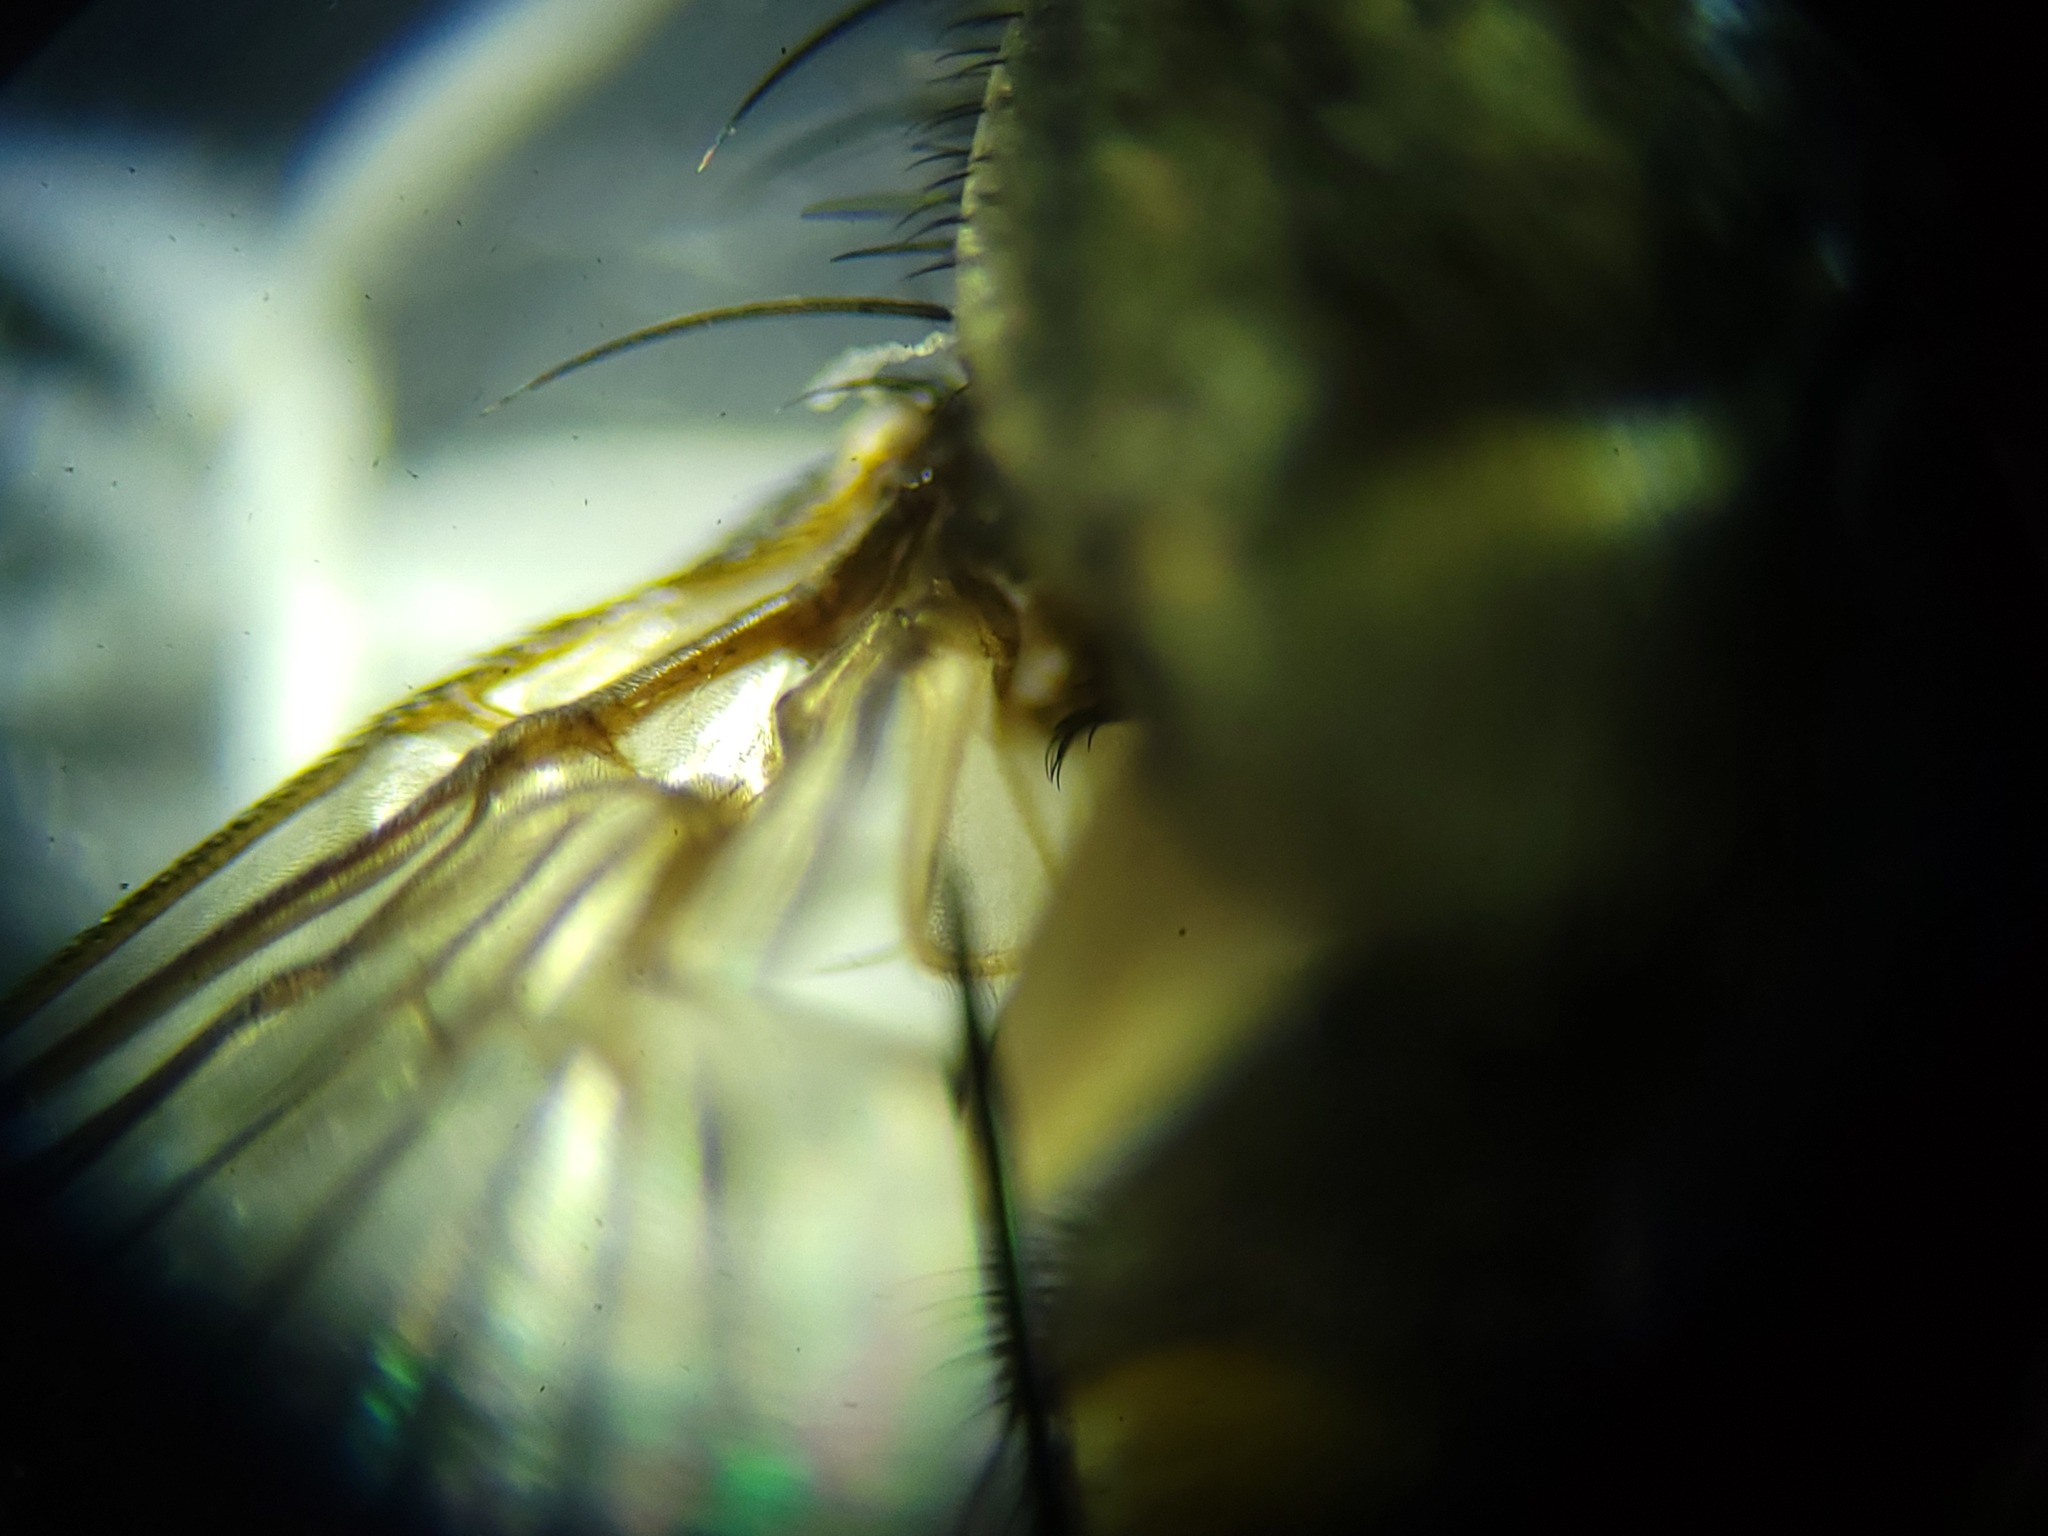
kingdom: Animalia
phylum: Arthropoda
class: Insecta
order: Diptera
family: Muscidae
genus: Musca
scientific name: Musca autumnalis
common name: Face fly
